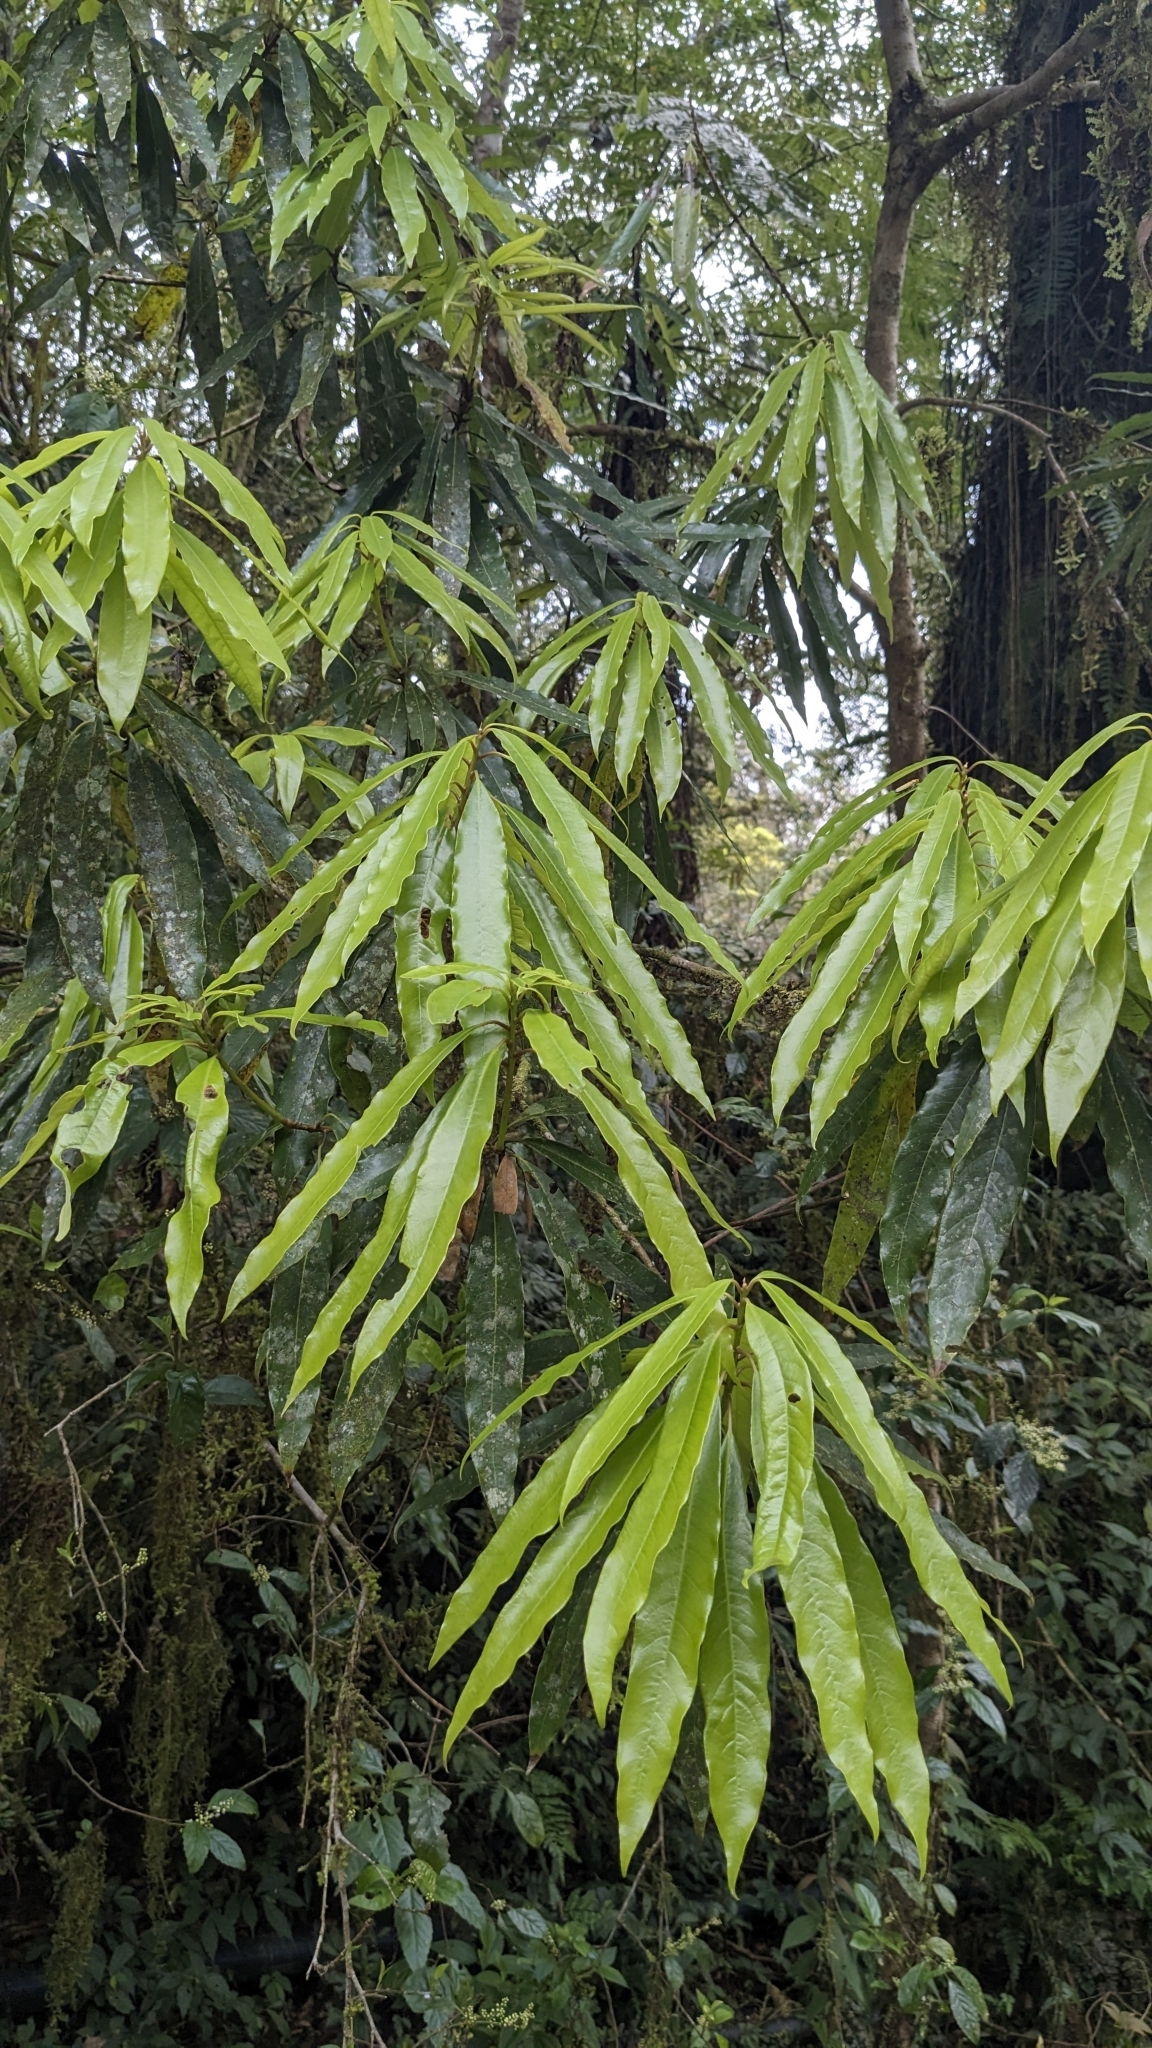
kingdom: Plantae
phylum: Tracheophyta
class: Magnoliopsida
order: Laurales
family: Lauraceae
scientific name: Lauraceae
